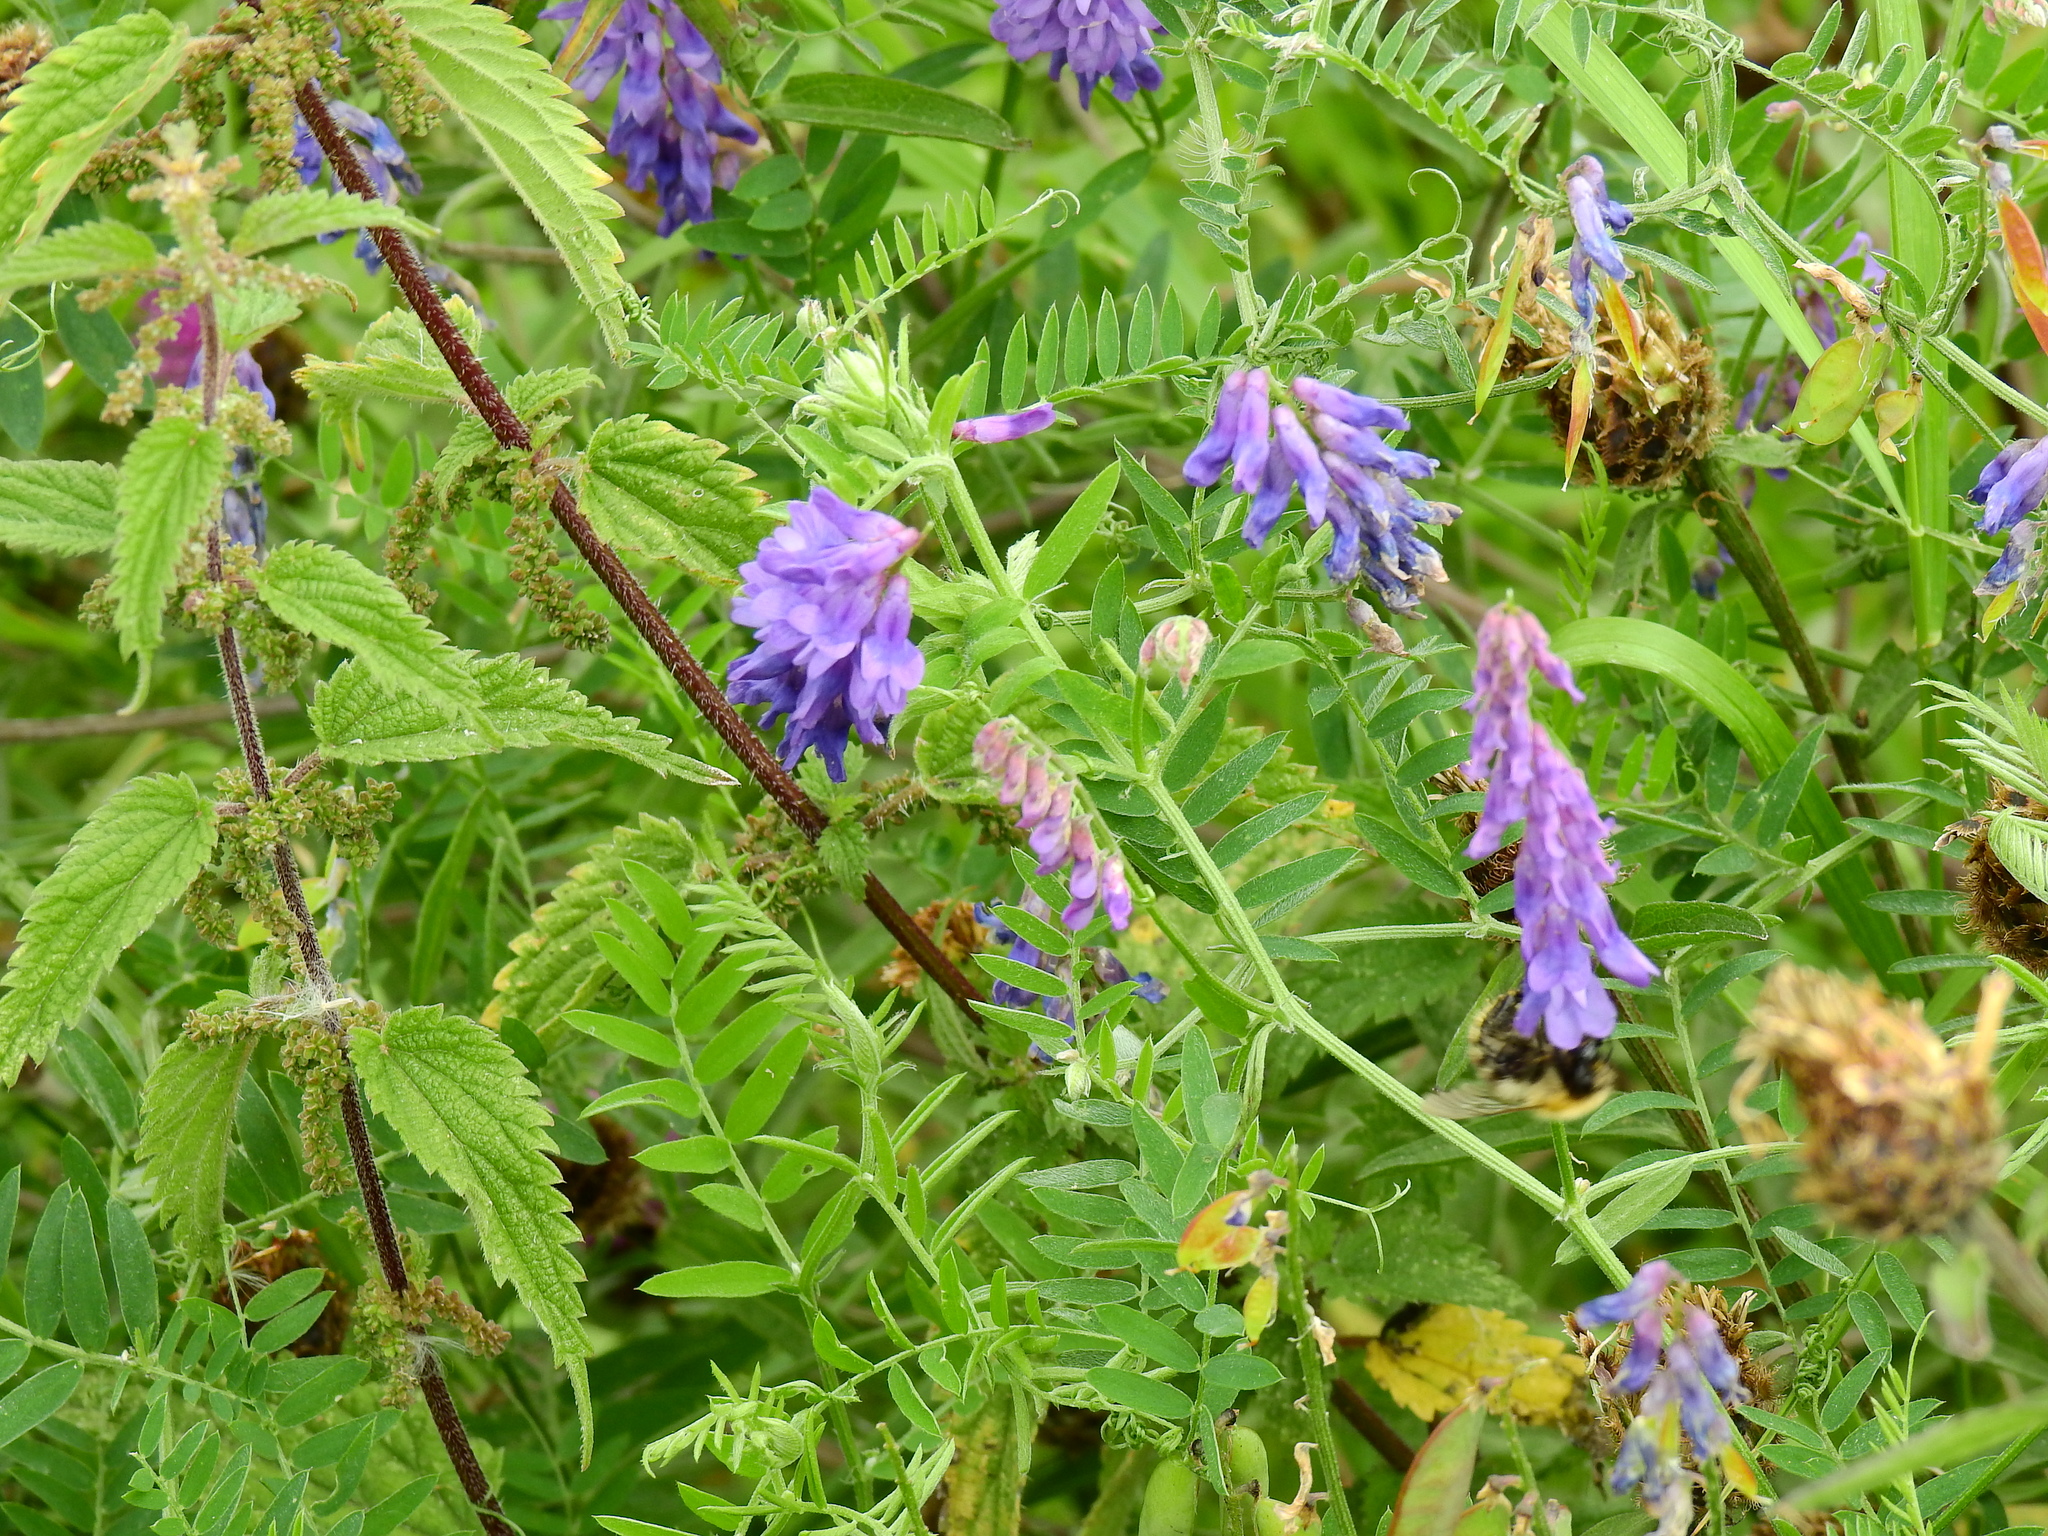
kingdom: Plantae
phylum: Tracheophyta
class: Magnoliopsida
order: Fabales
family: Fabaceae
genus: Vicia
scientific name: Vicia cracca
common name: Bird vetch
